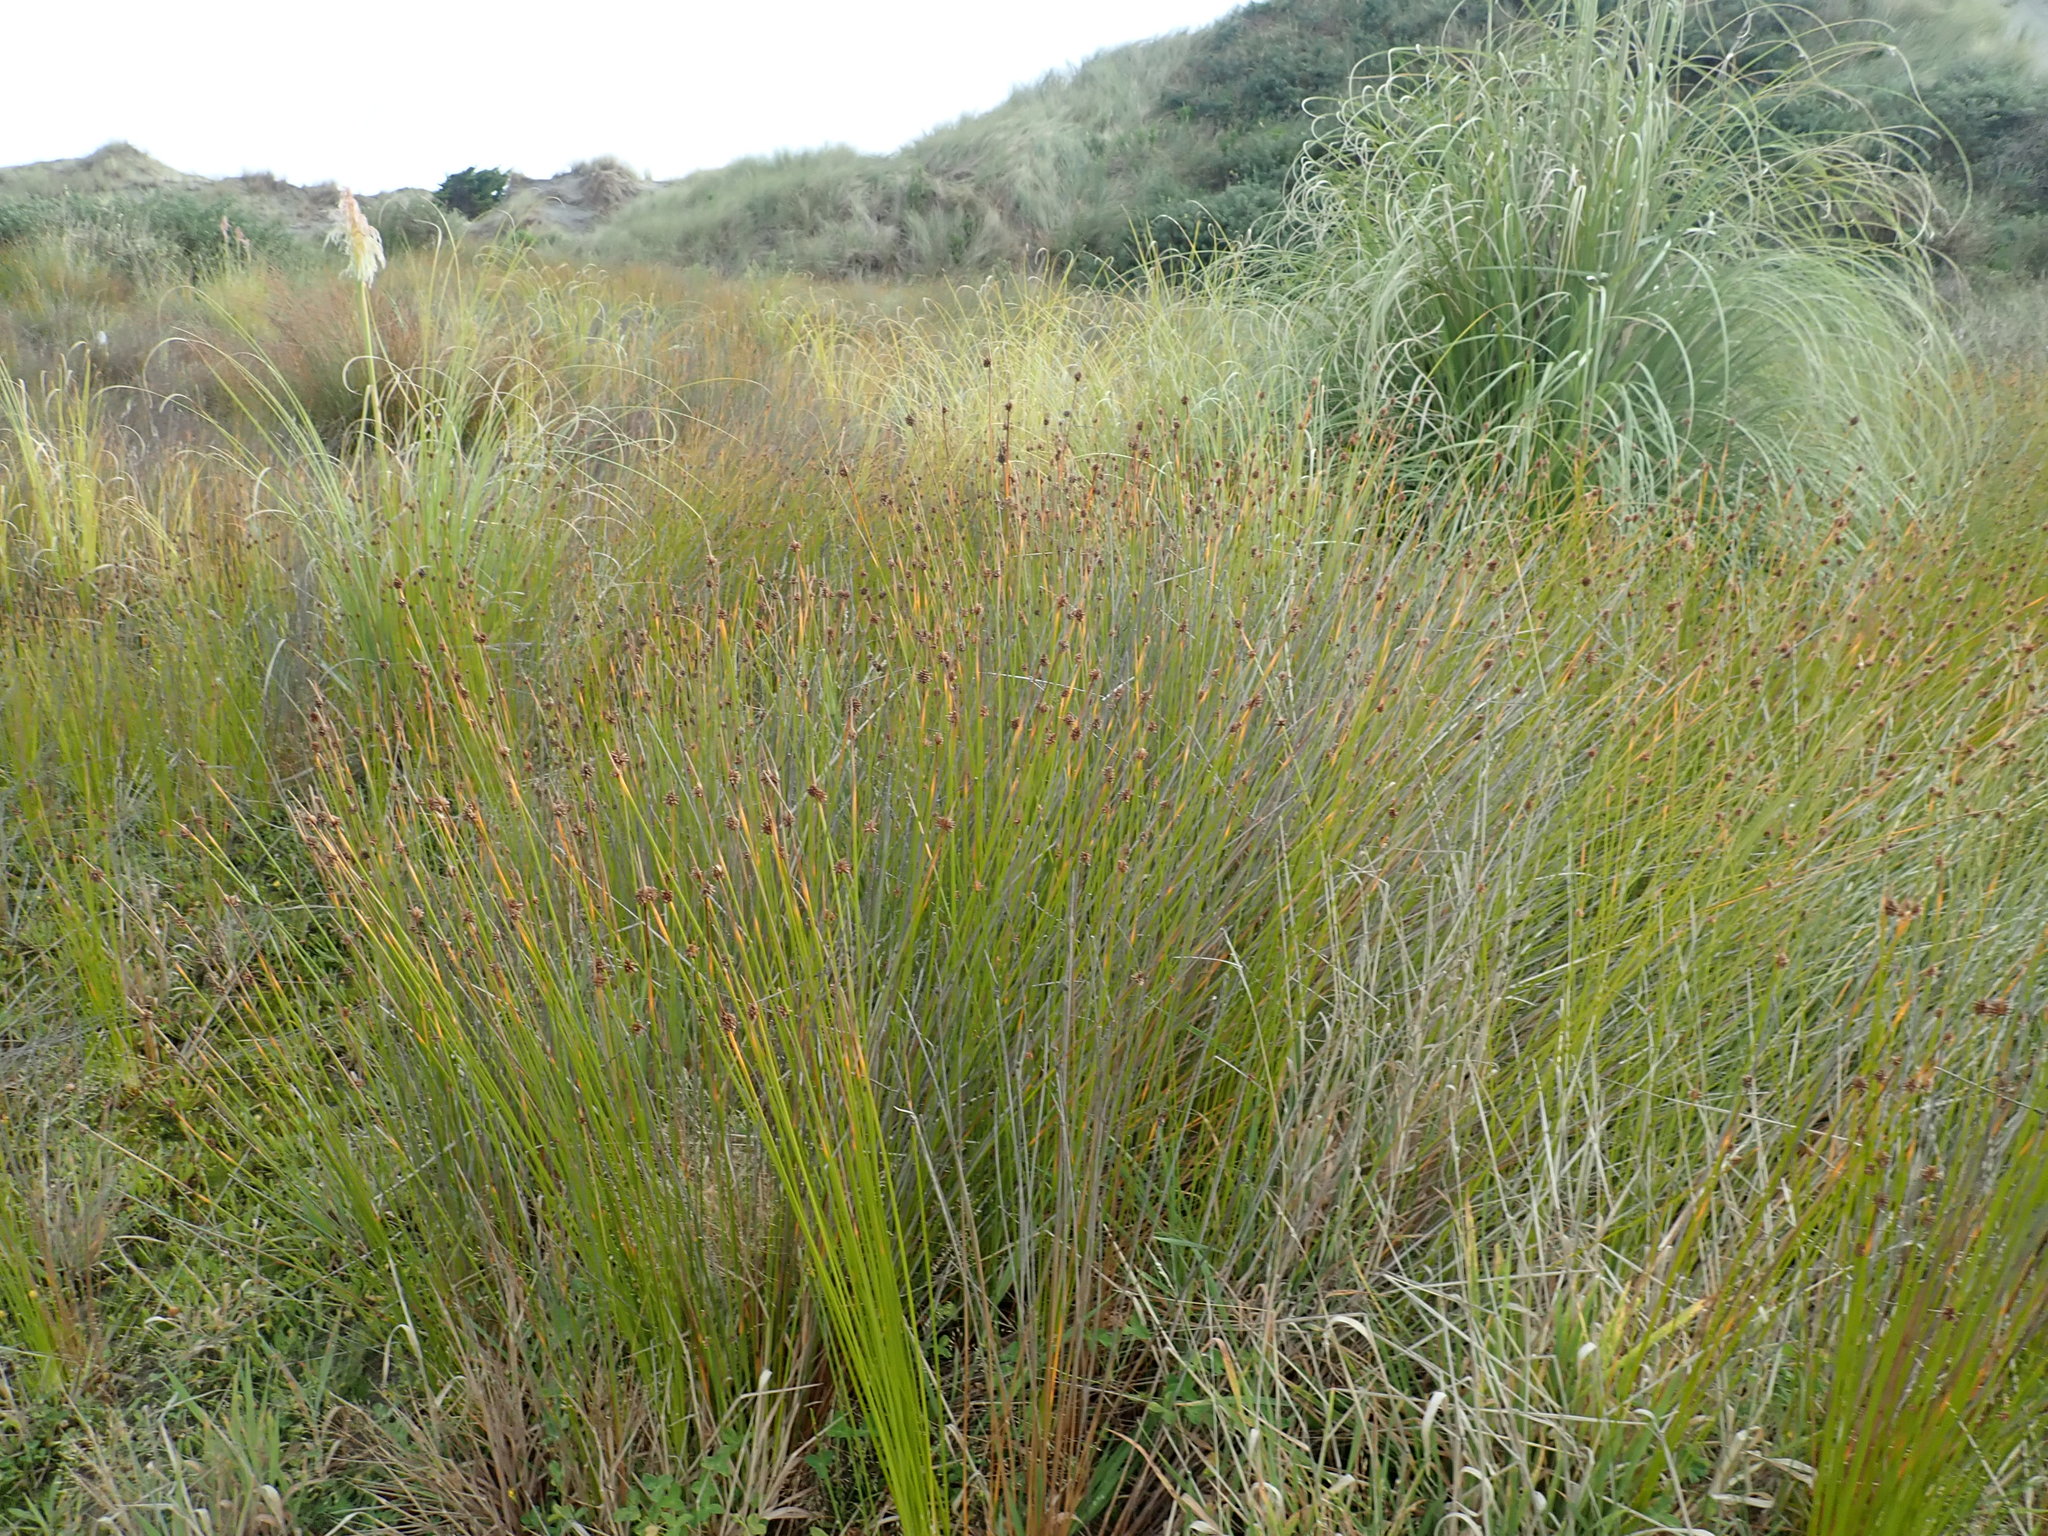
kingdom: Plantae
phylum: Tracheophyta
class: Liliopsida
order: Poales
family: Cyperaceae
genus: Ficinia
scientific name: Ficinia nodosa
